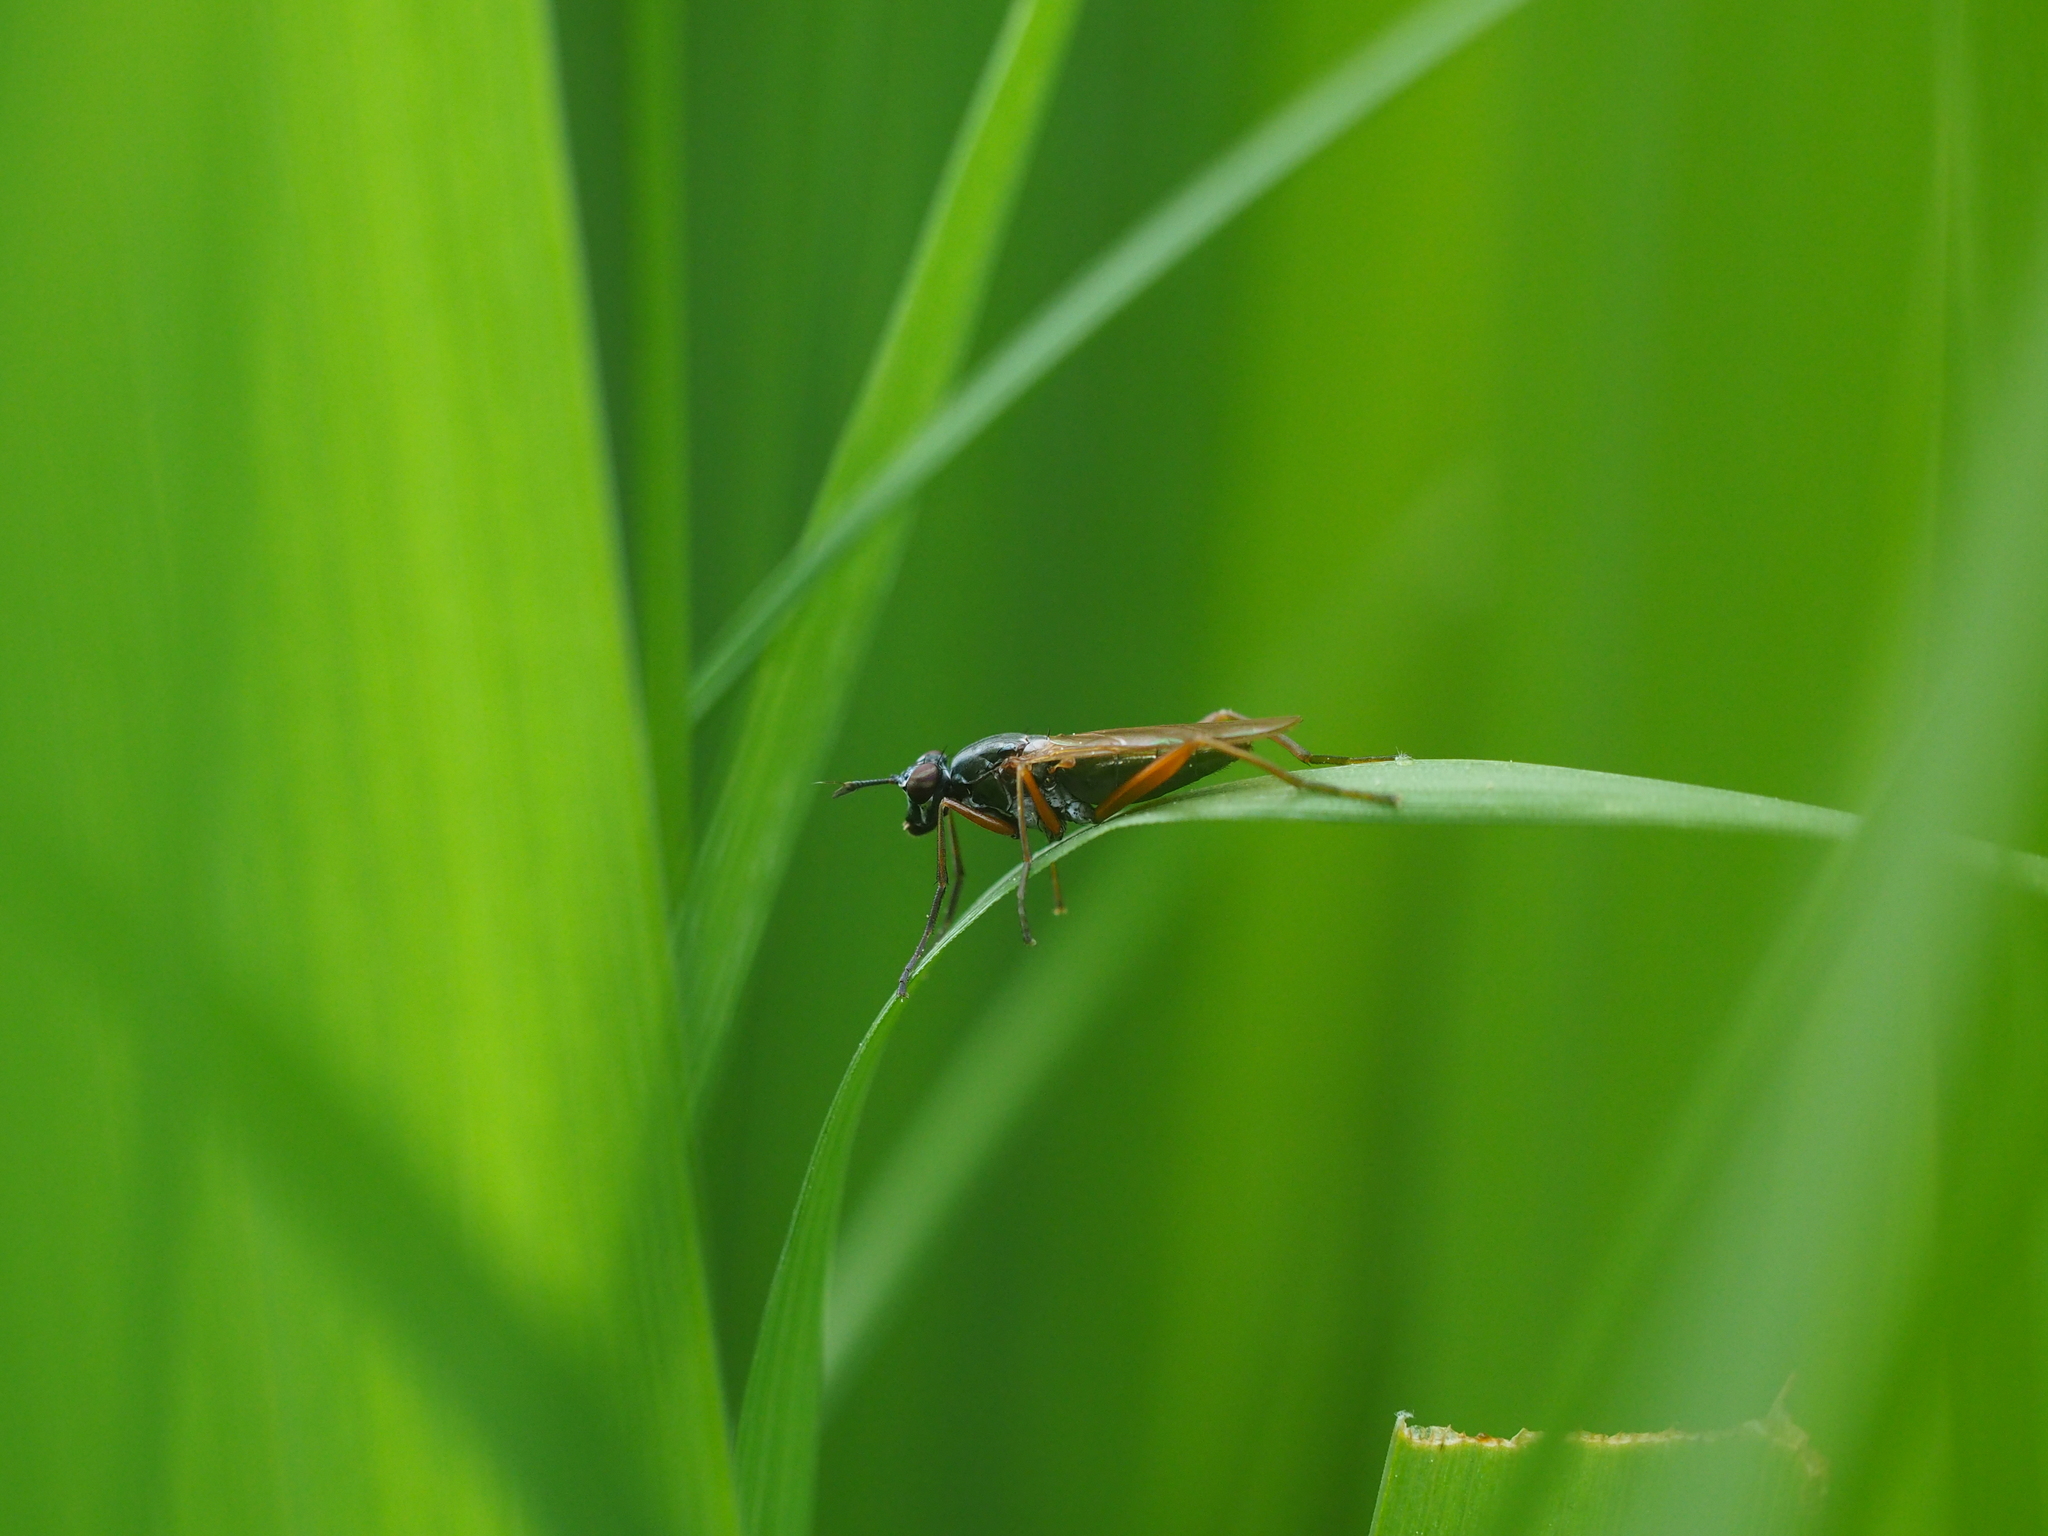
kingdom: Animalia
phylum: Arthropoda
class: Insecta
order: Diptera
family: Sciomyzidae
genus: Sepedon
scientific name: Sepedon sphegea
